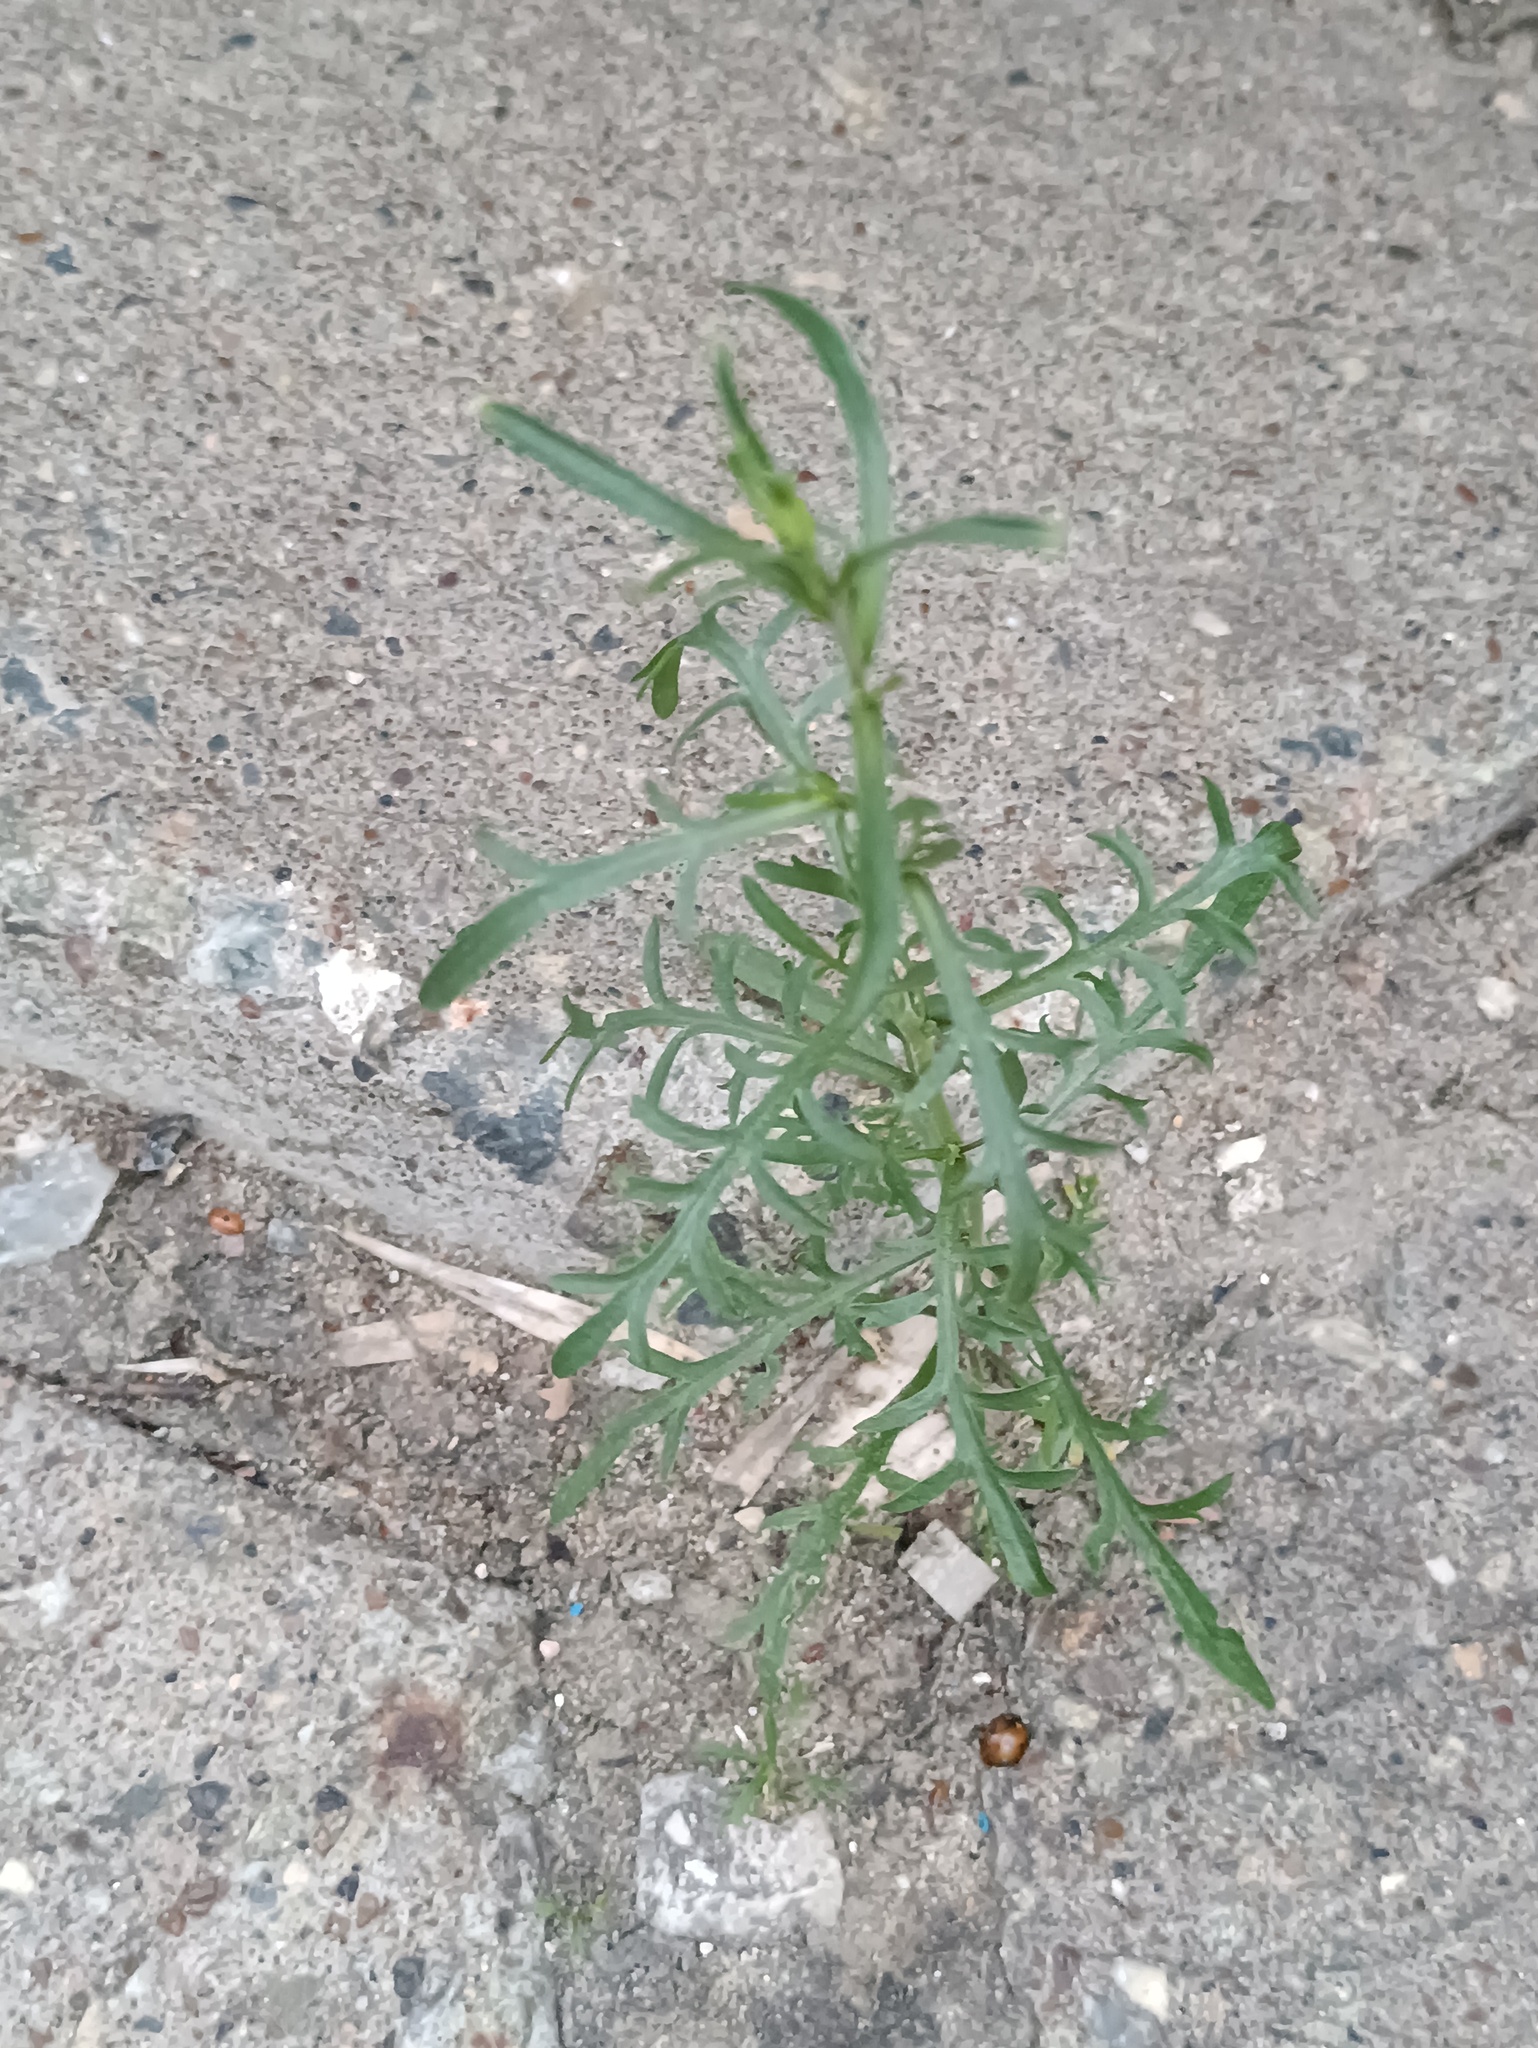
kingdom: Plantae
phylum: Tracheophyta
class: Magnoliopsida
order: Brassicales
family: Brassicaceae
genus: Lepidium
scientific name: Lepidium ruderale
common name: Narrow-leaved pepperwort
